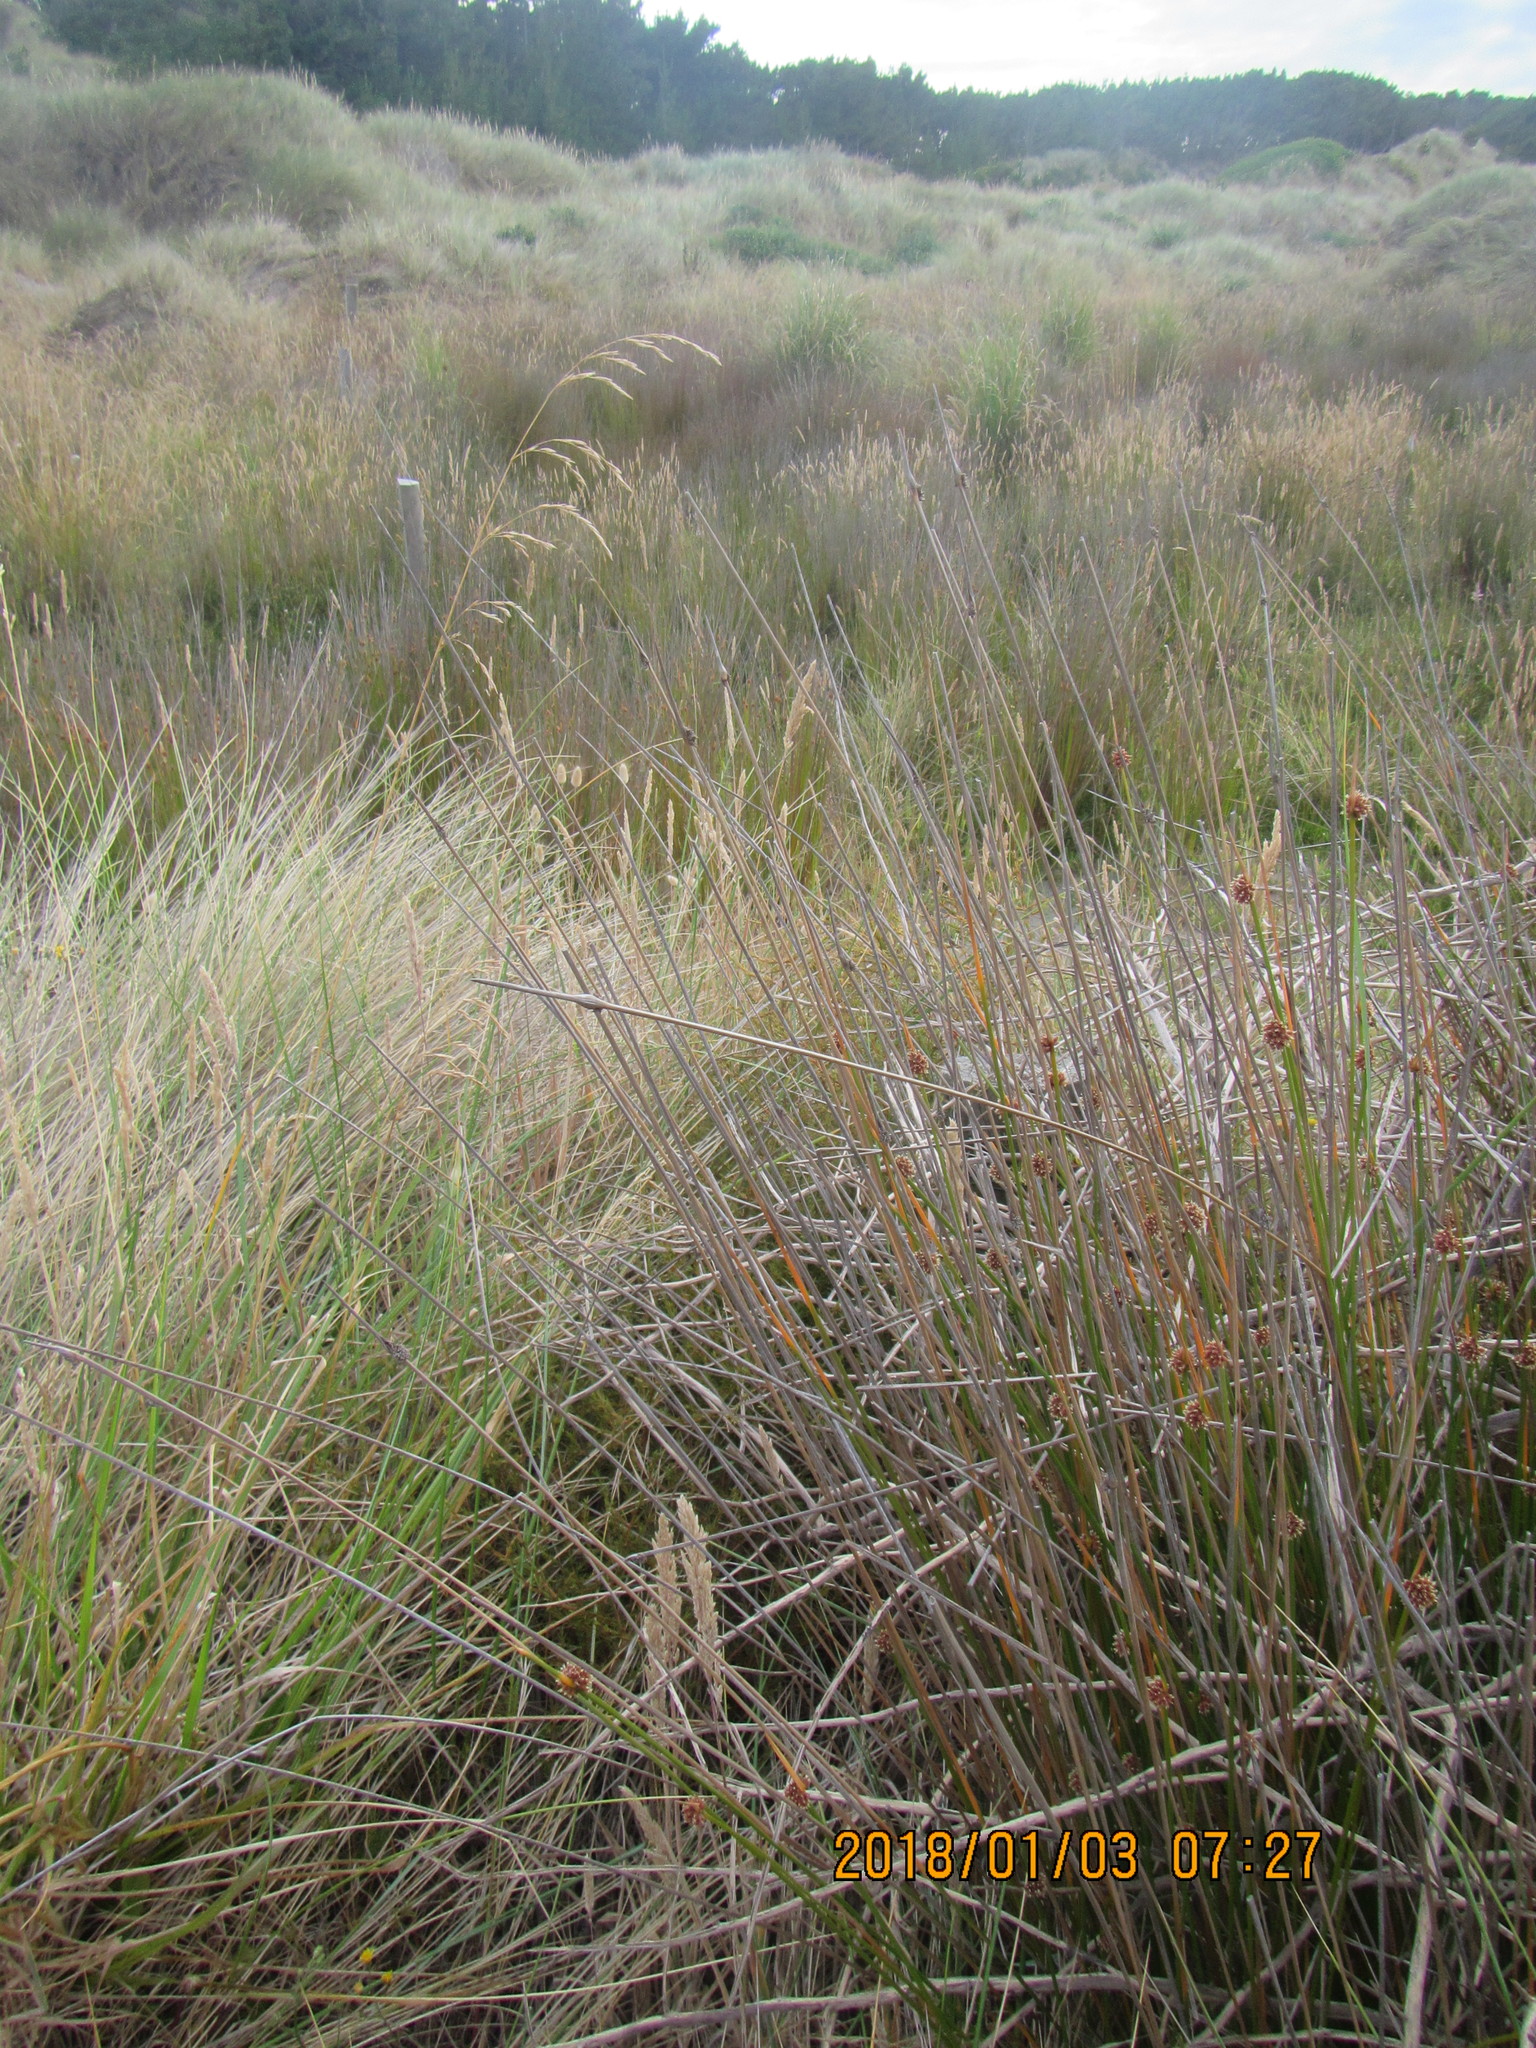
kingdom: Plantae
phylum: Tracheophyta
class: Liliopsida
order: Poales
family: Cyperaceae
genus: Ficinia
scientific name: Ficinia nodosa
